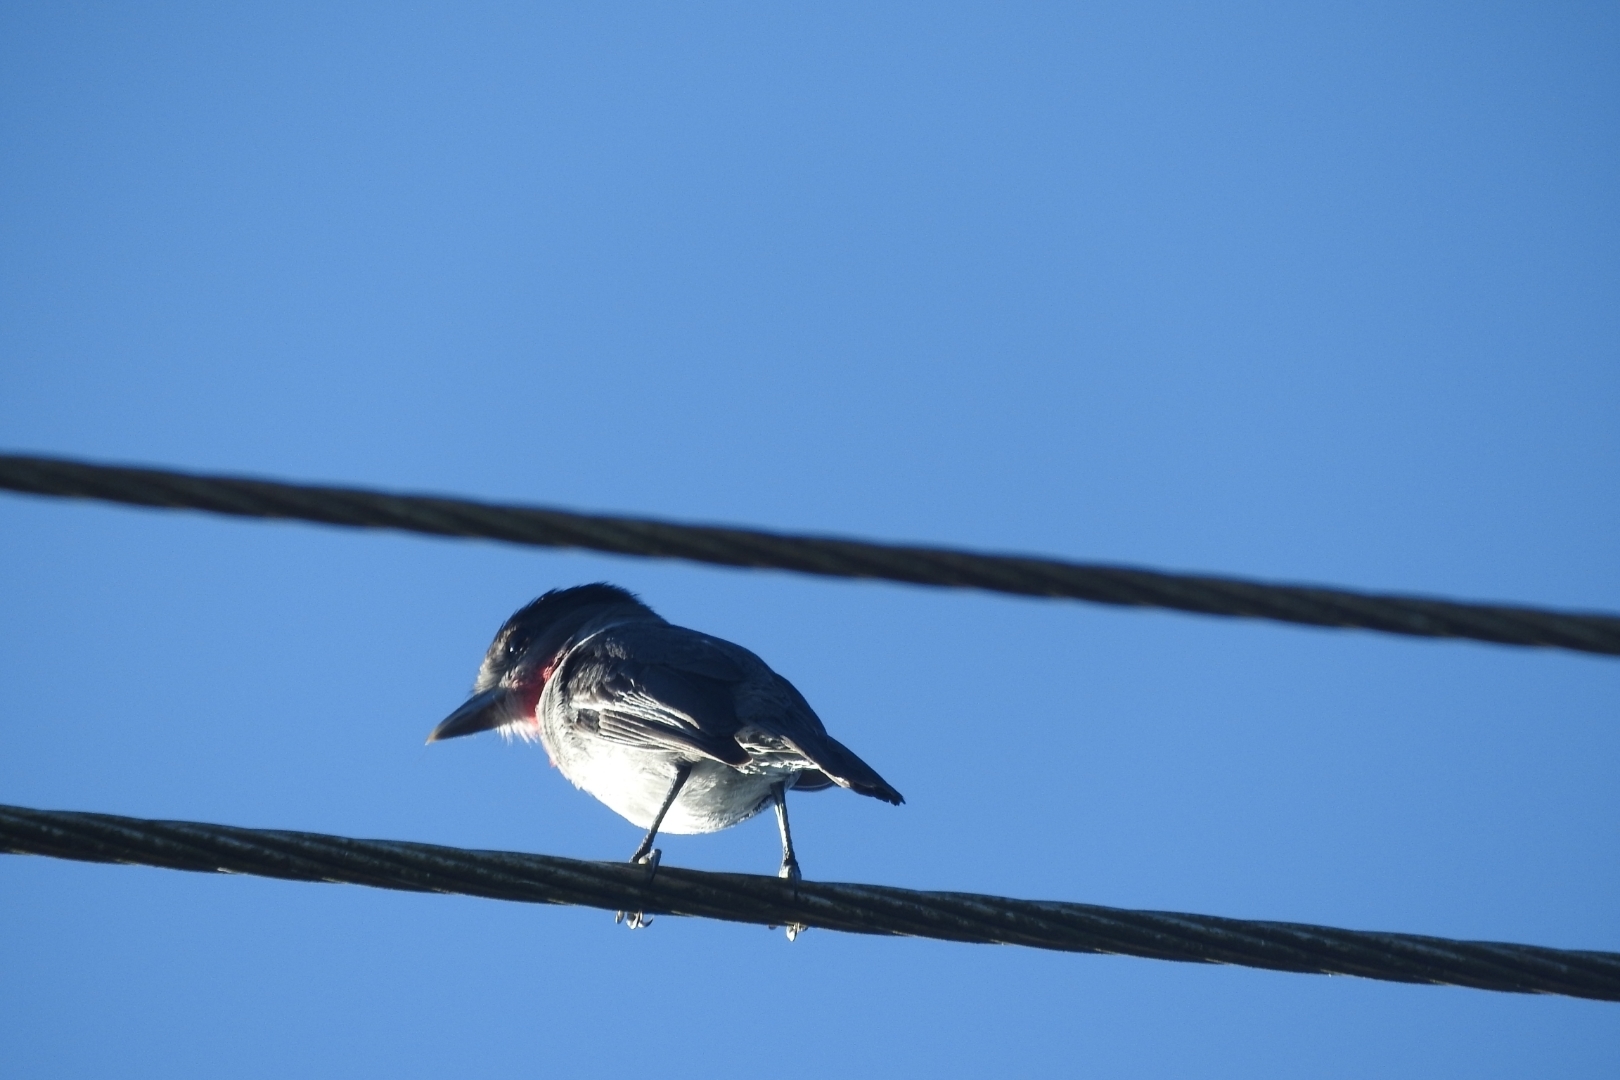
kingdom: Animalia
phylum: Chordata
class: Aves
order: Passeriformes
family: Cotingidae
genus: Pachyramphus
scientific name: Pachyramphus aglaiae
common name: Rose-throated becard
